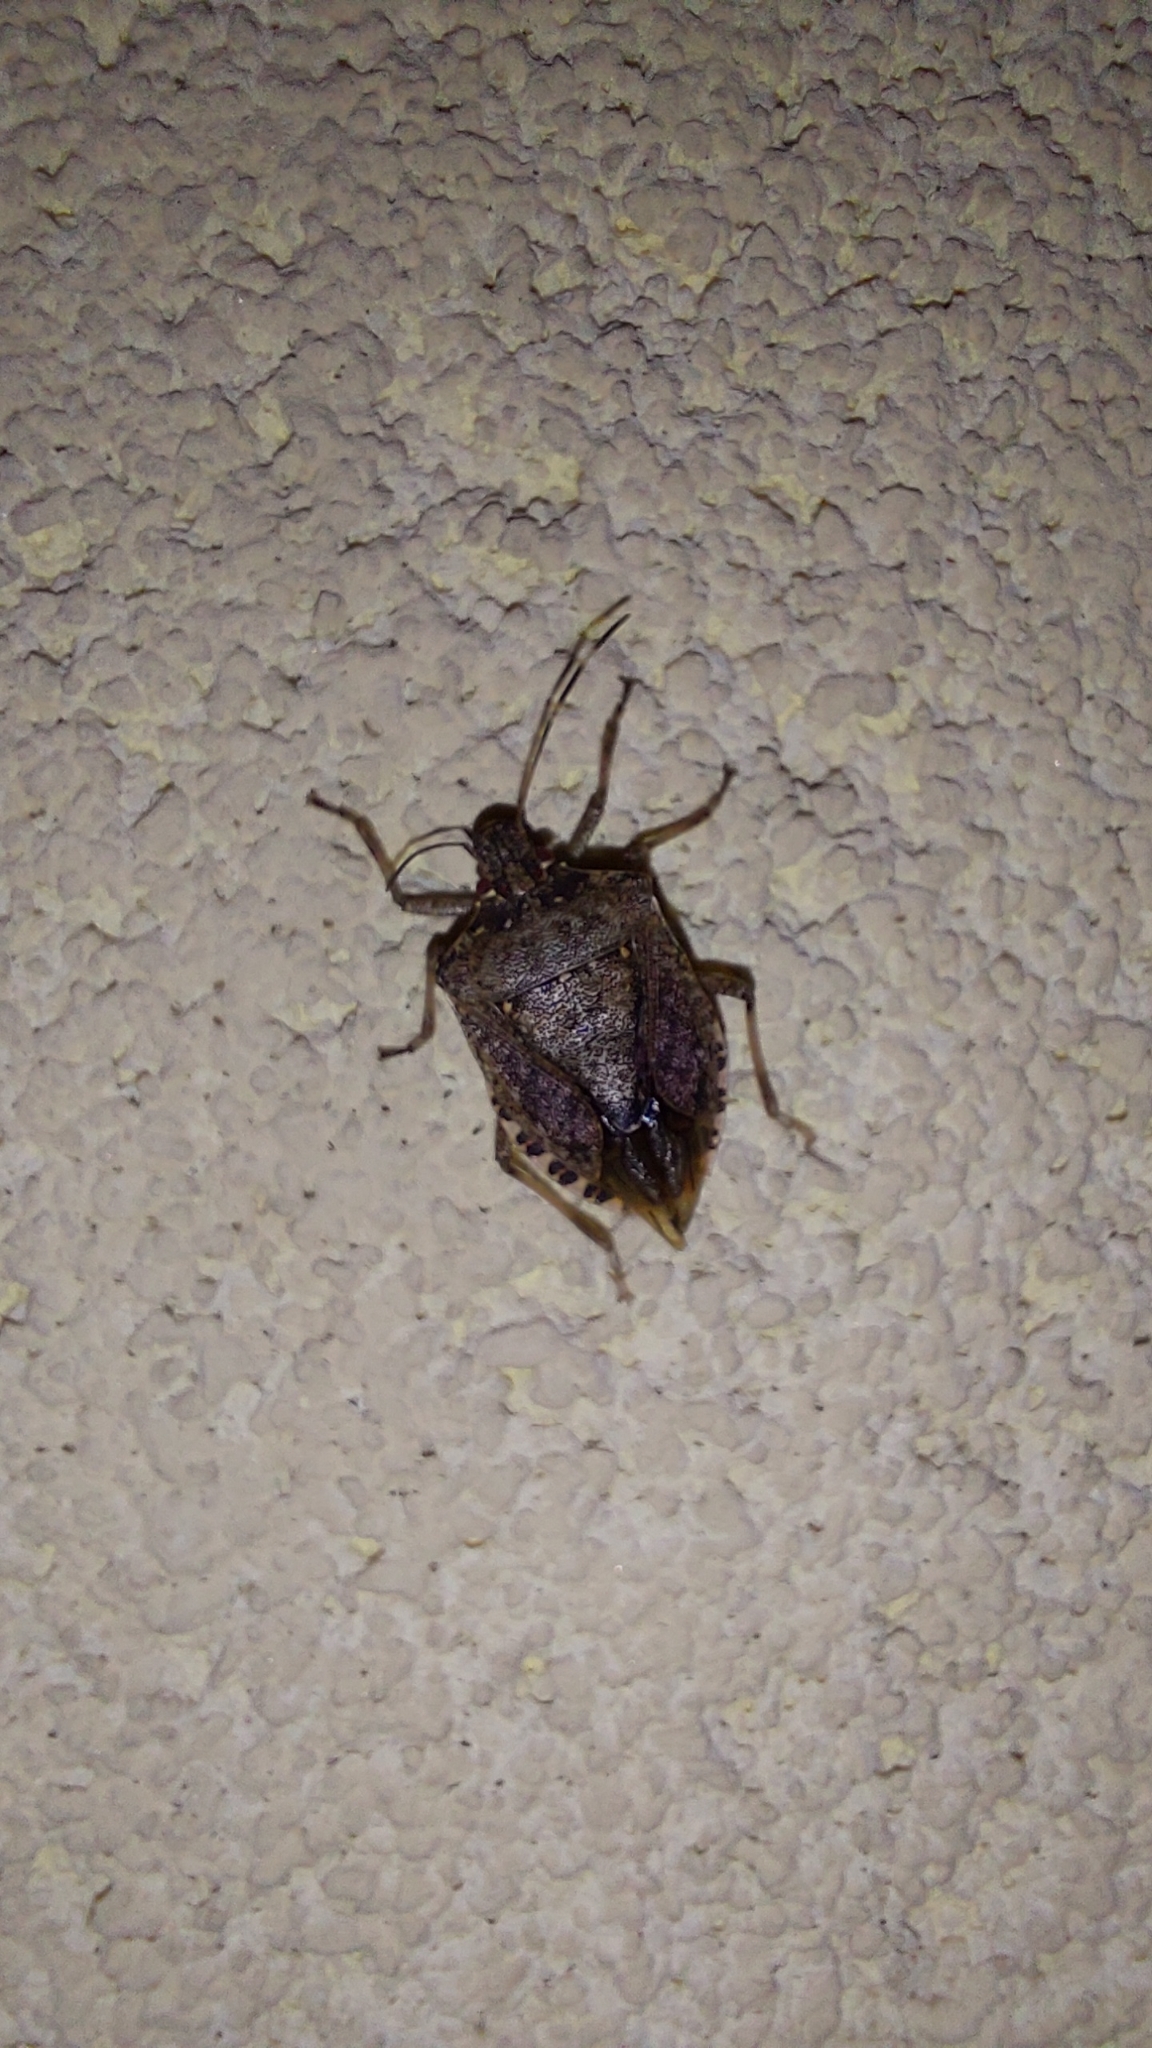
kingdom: Animalia
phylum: Arthropoda
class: Insecta
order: Hemiptera
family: Pentatomidae
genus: Halyomorpha
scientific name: Halyomorpha halys
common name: Brown marmorated stink bug
